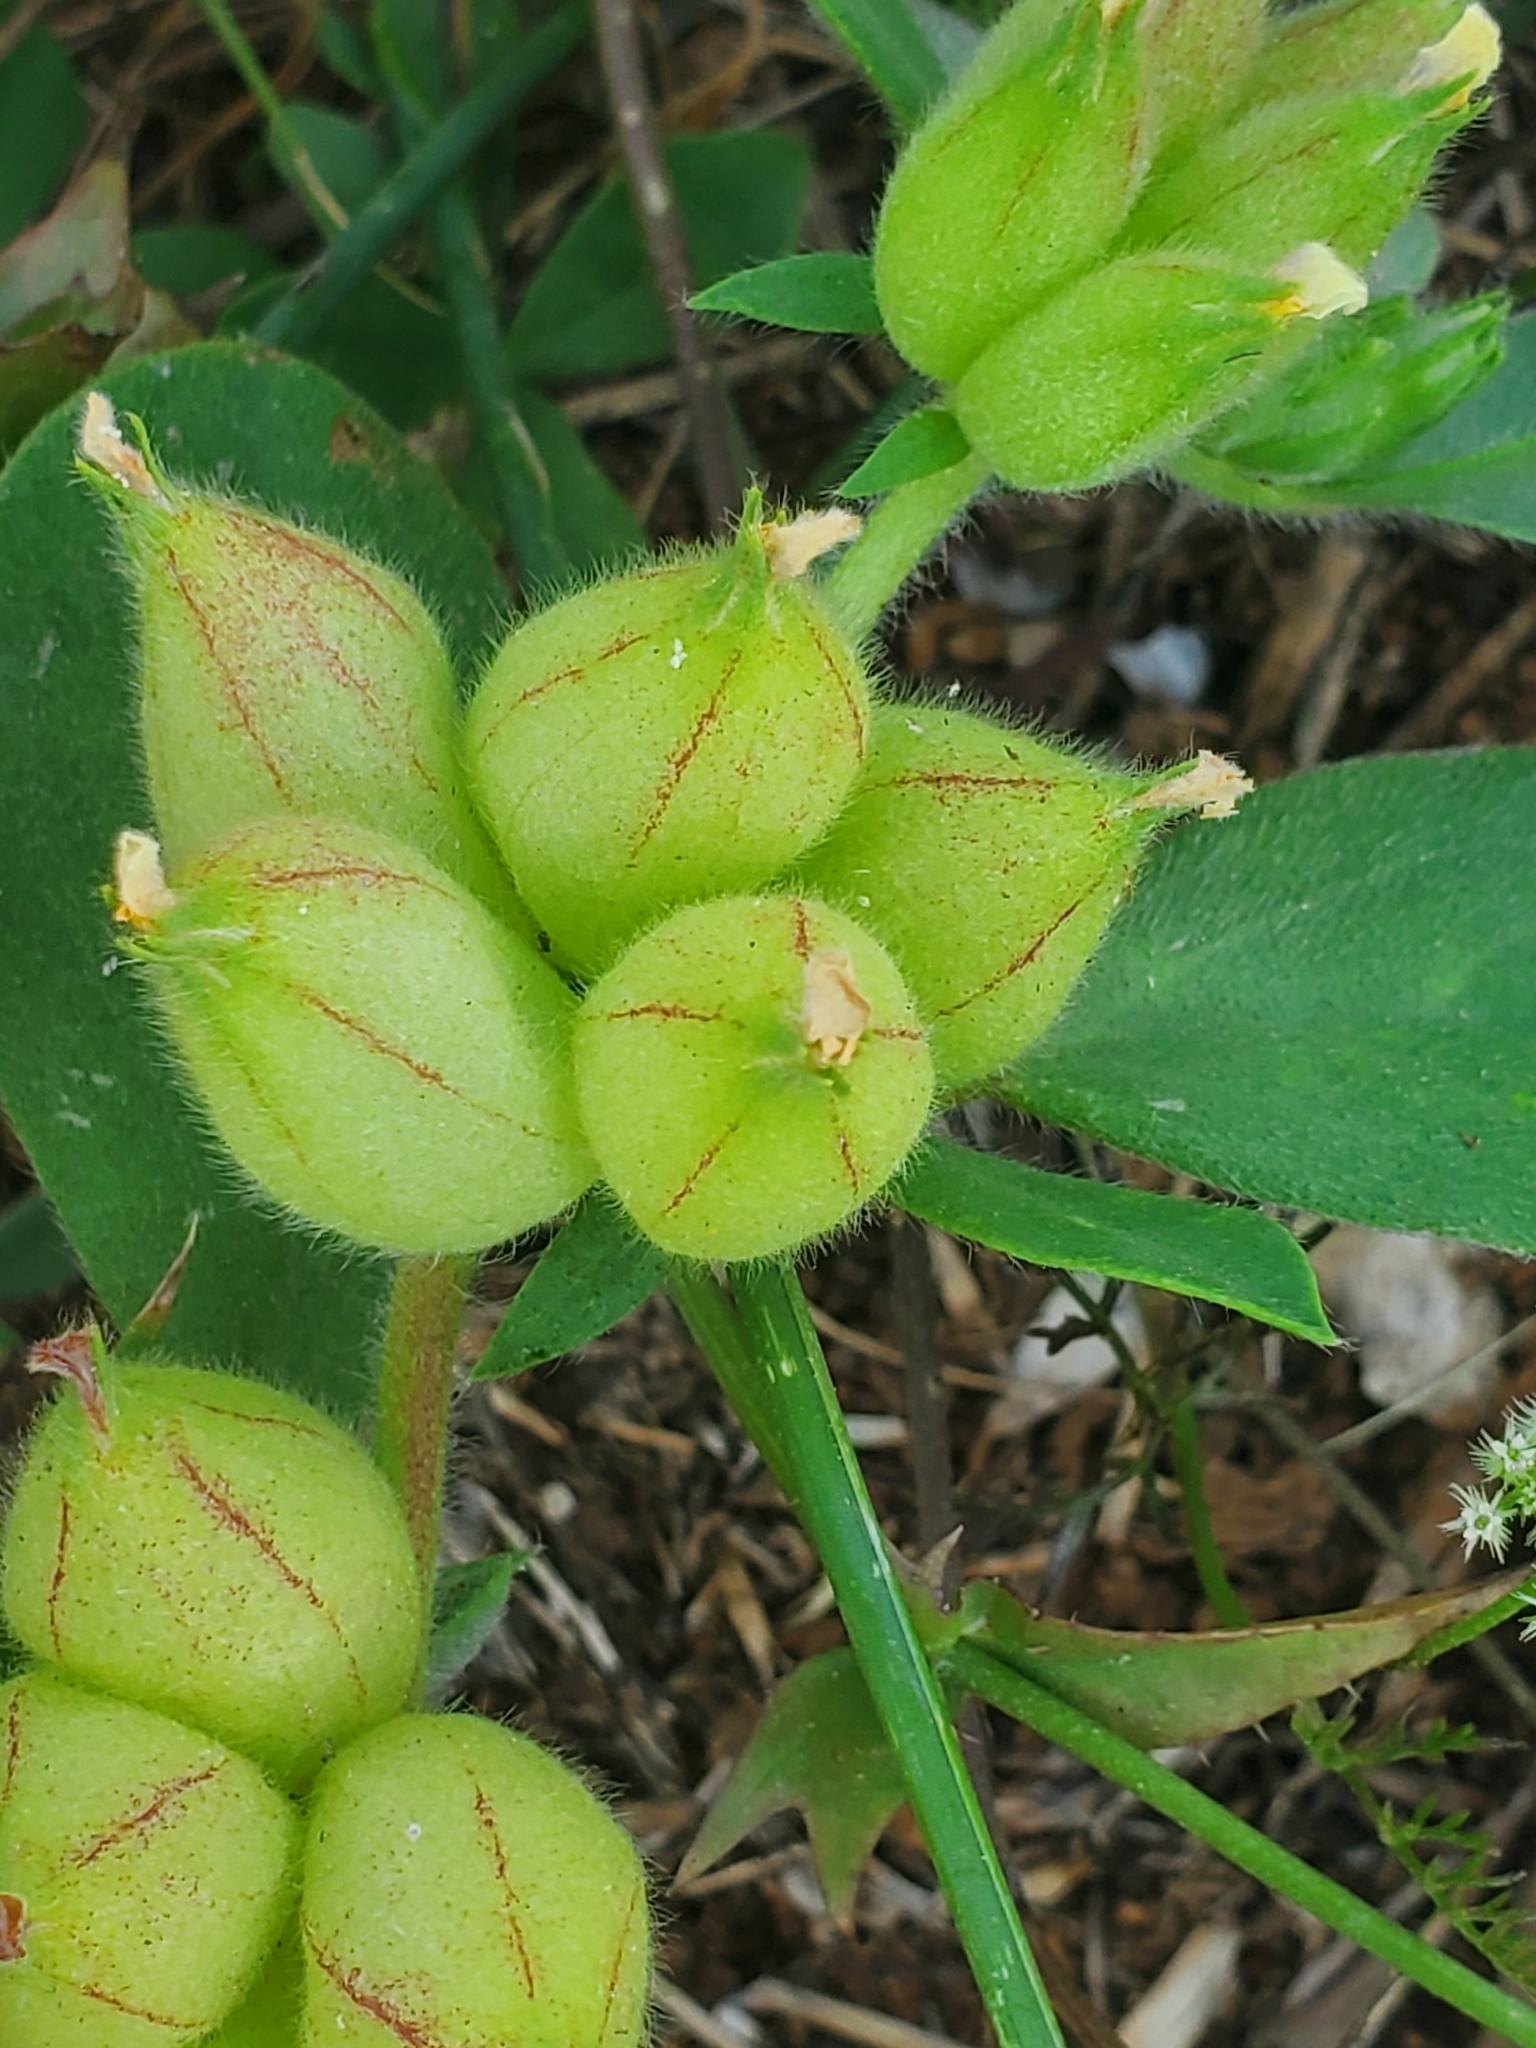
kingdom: Plantae
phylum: Tracheophyta
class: Magnoliopsida
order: Fabales
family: Fabaceae
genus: Tripodion
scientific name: Tripodion tetraphyllum
